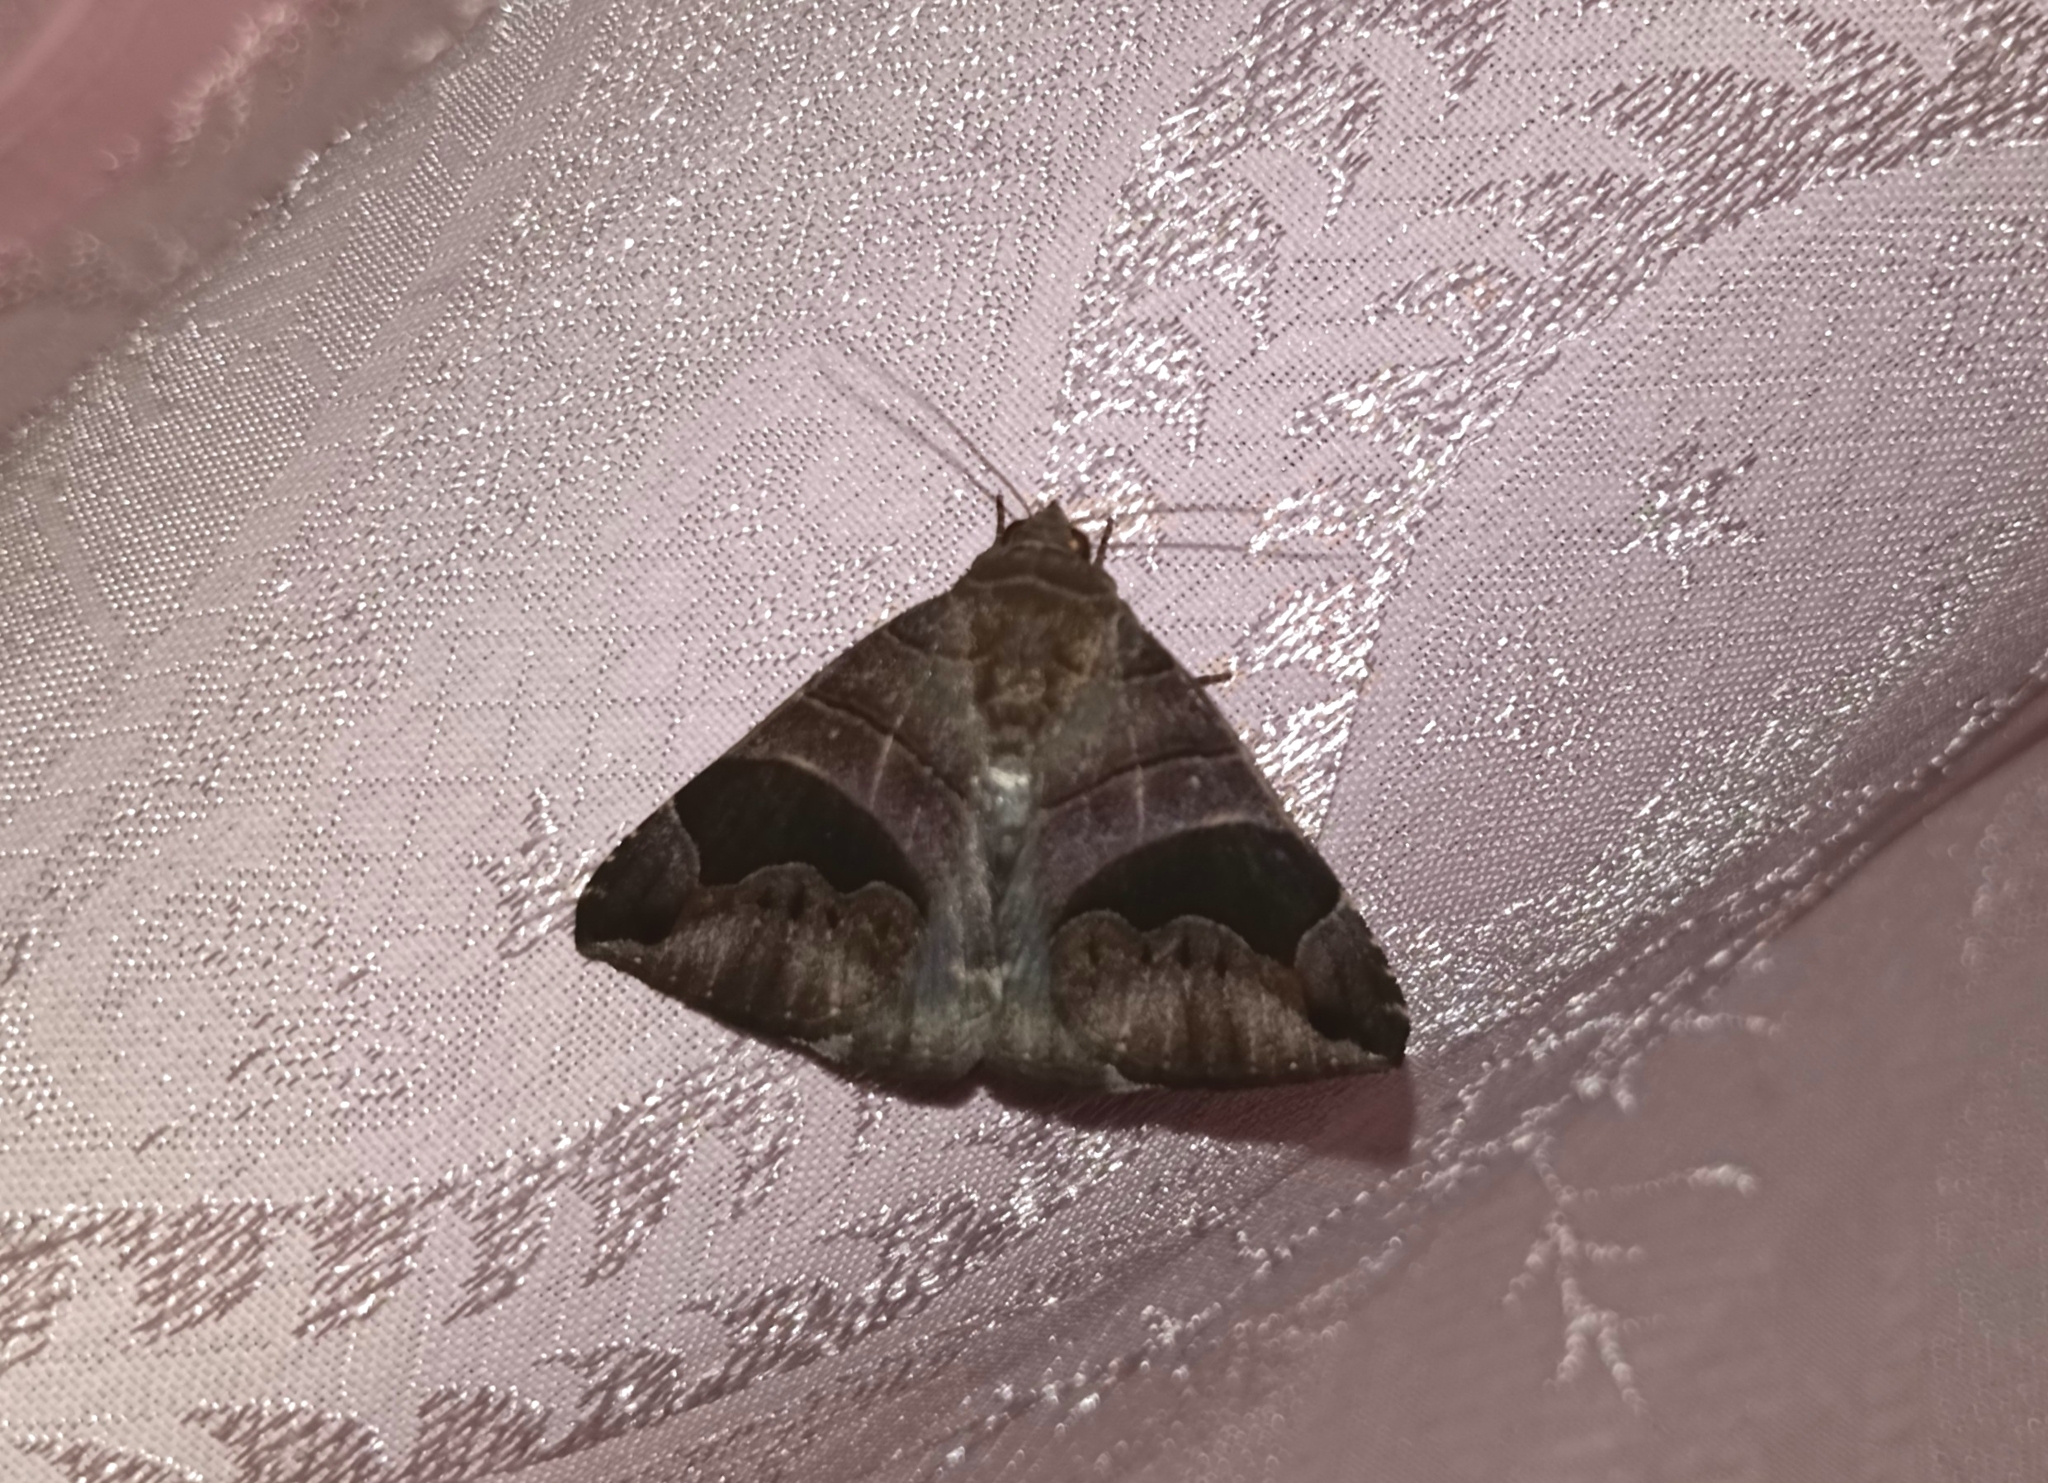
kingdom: Animalia
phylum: Arthropoda
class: Insecta
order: Lepidoptera
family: Erebidae
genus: Bastilla
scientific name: Bastilla joviana
